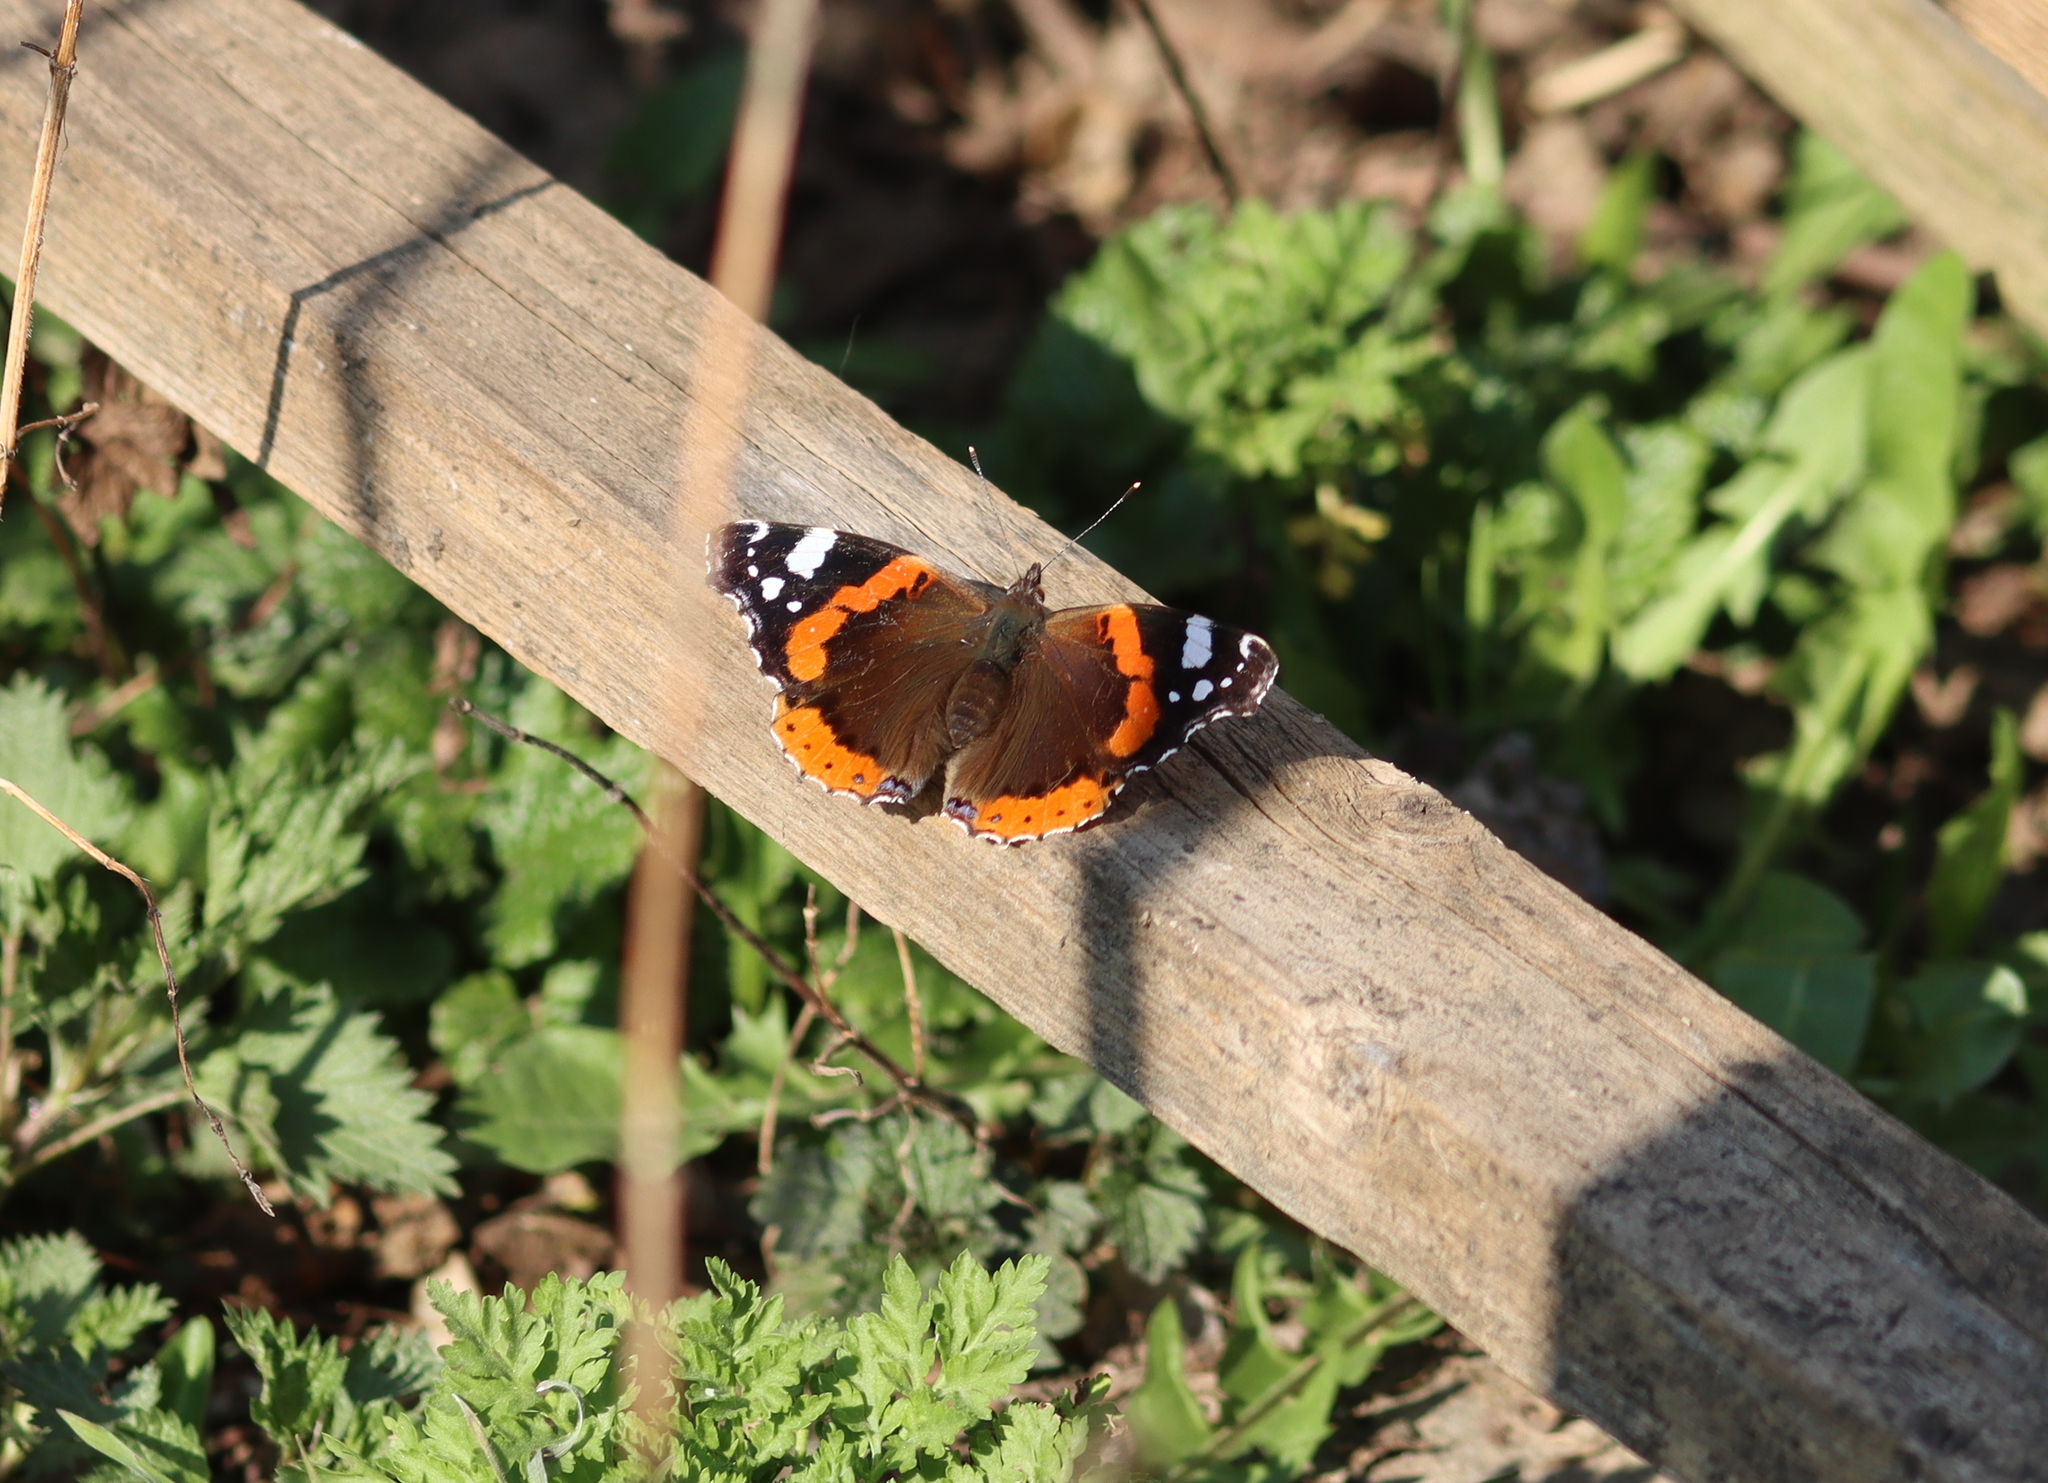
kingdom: Animalia
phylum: Arthropoda
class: Insecta
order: Lepidoptera
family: Nymphalidae
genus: Vanessa
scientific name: Vanessa atalanta
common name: Red admiral
